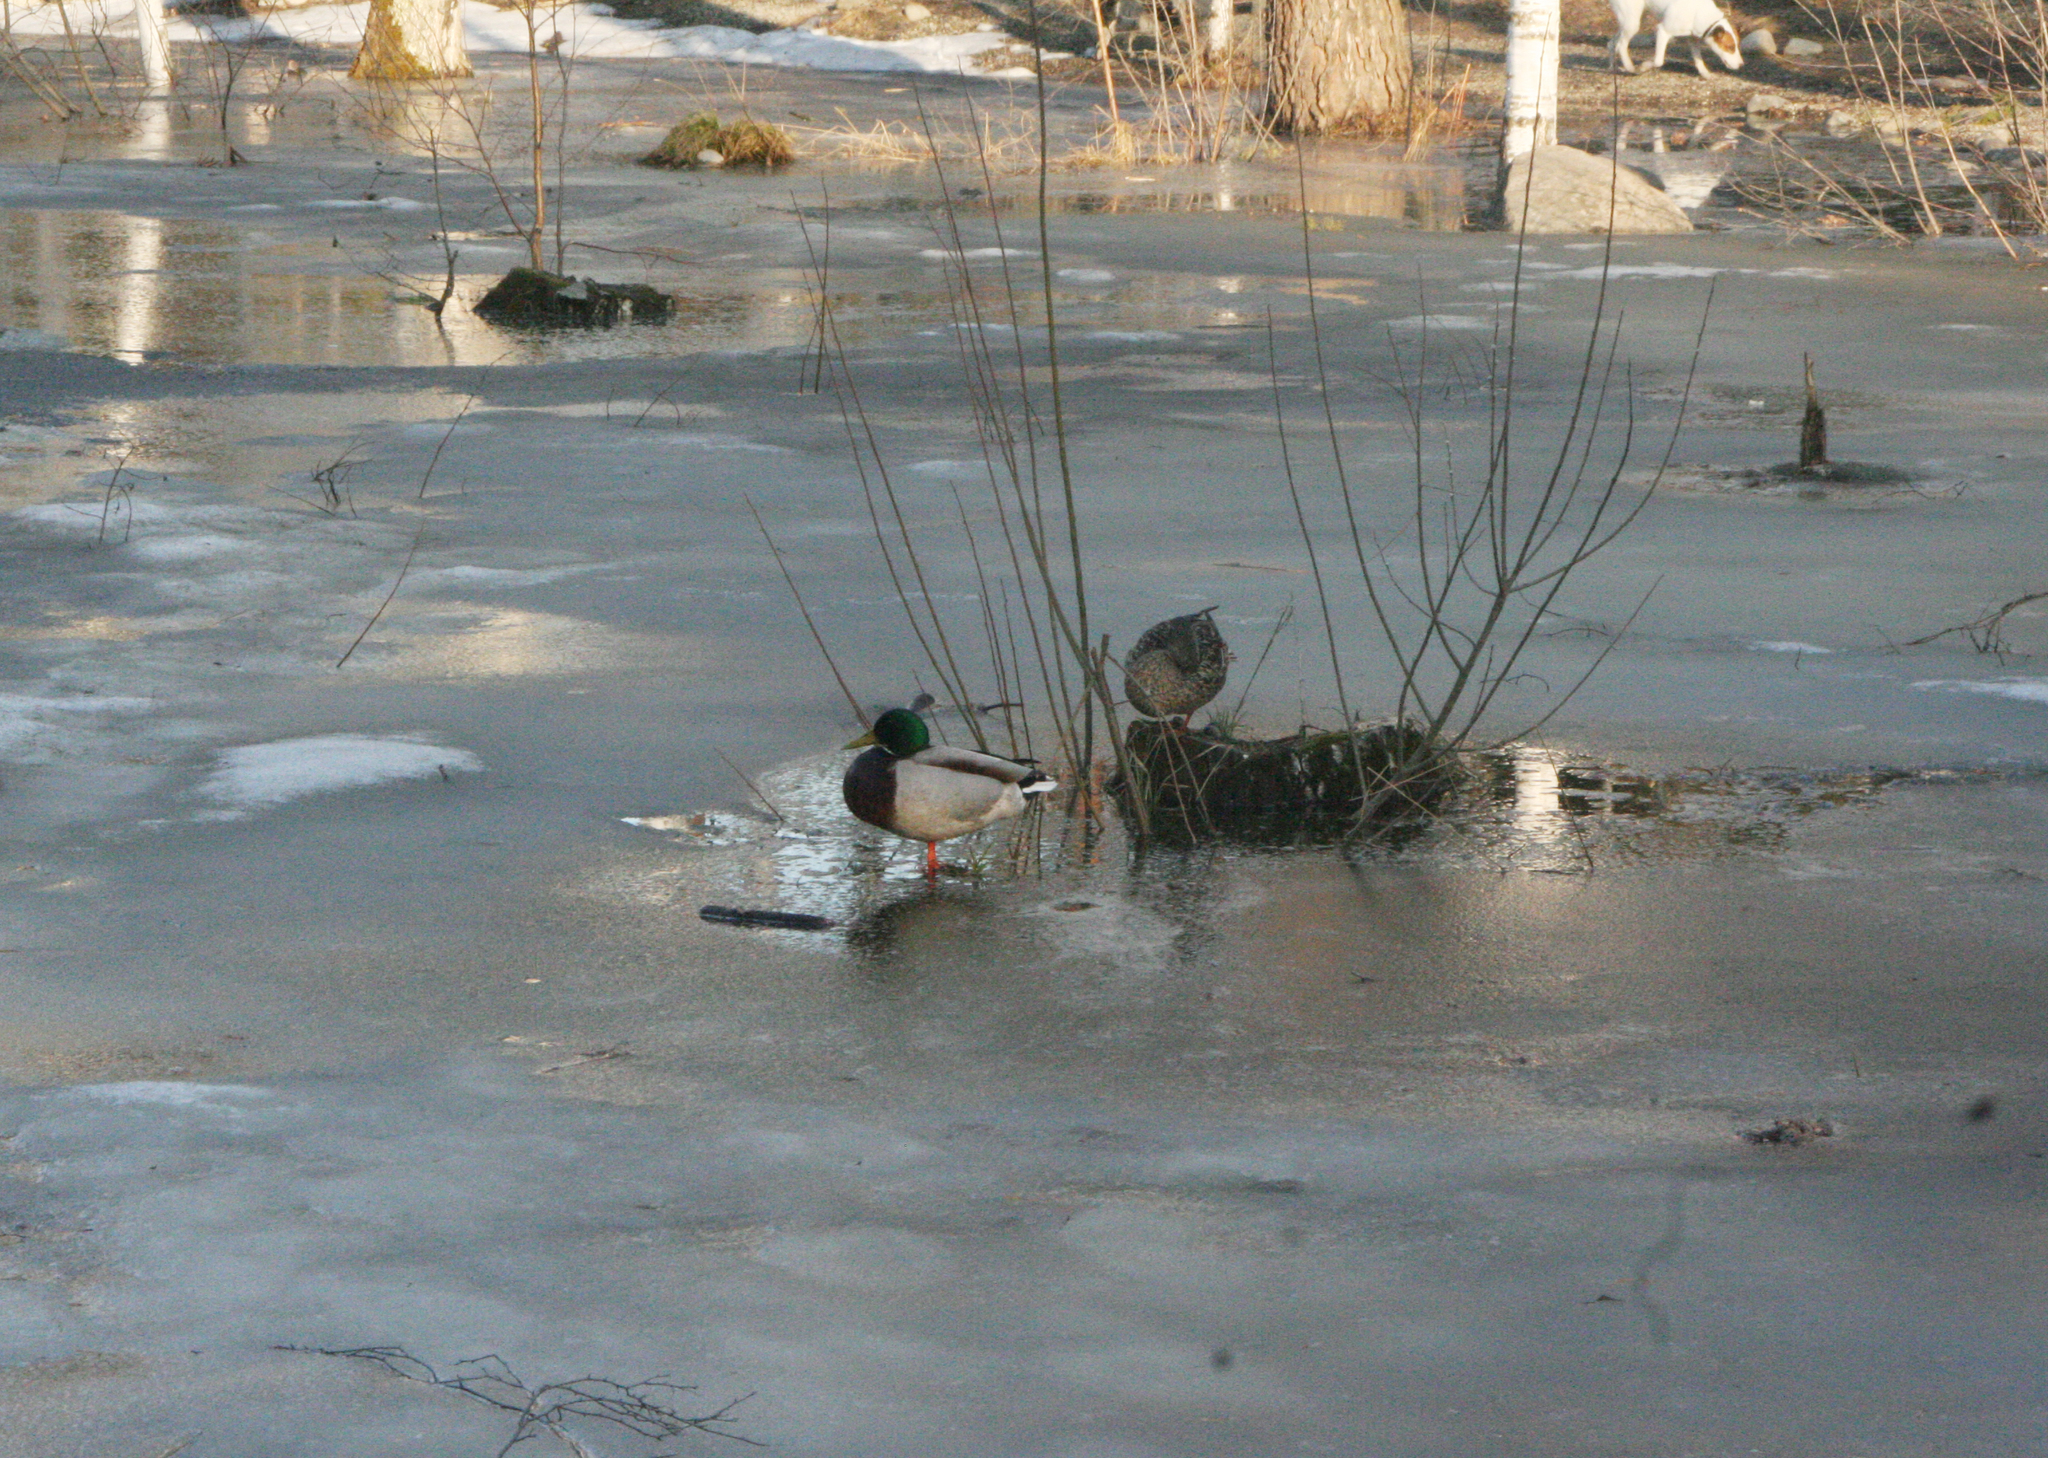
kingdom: Animalia
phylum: Chordata
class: Aves
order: Anseriformes
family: Anatidae
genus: Anas
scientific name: Anas platyrhynchos
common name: Mallard
